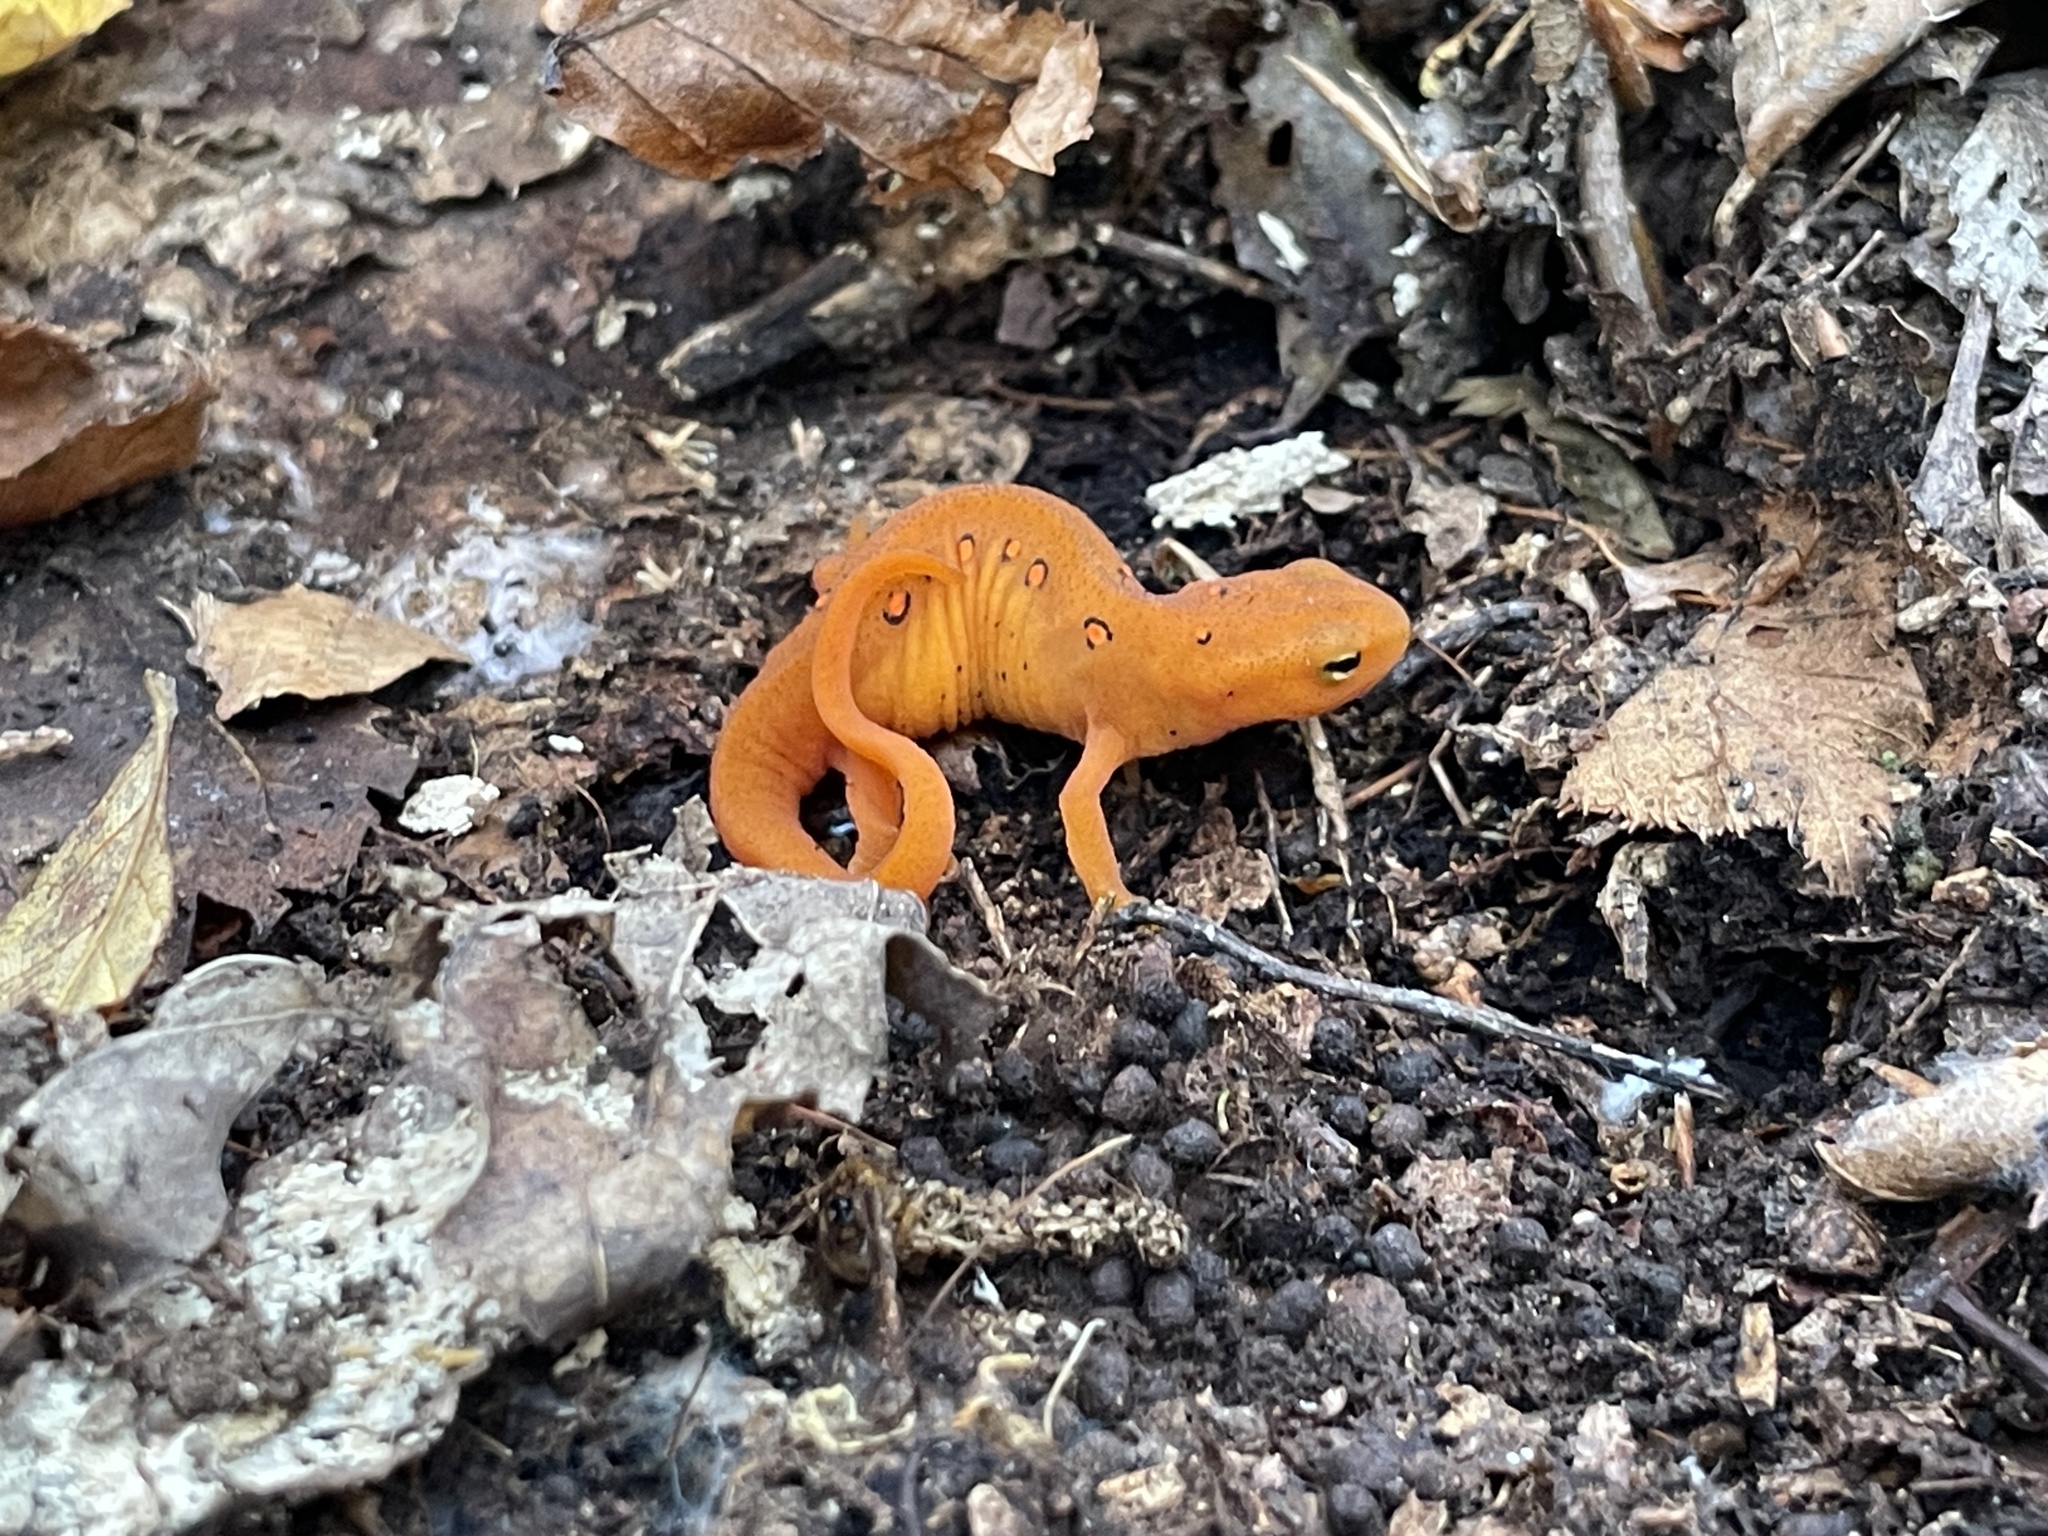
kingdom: Animalia
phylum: Chordata
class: Amphibia
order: Caudata
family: Salamandridae
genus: Notophthalmus
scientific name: Notophthalmus viridescens
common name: Eastern newt
